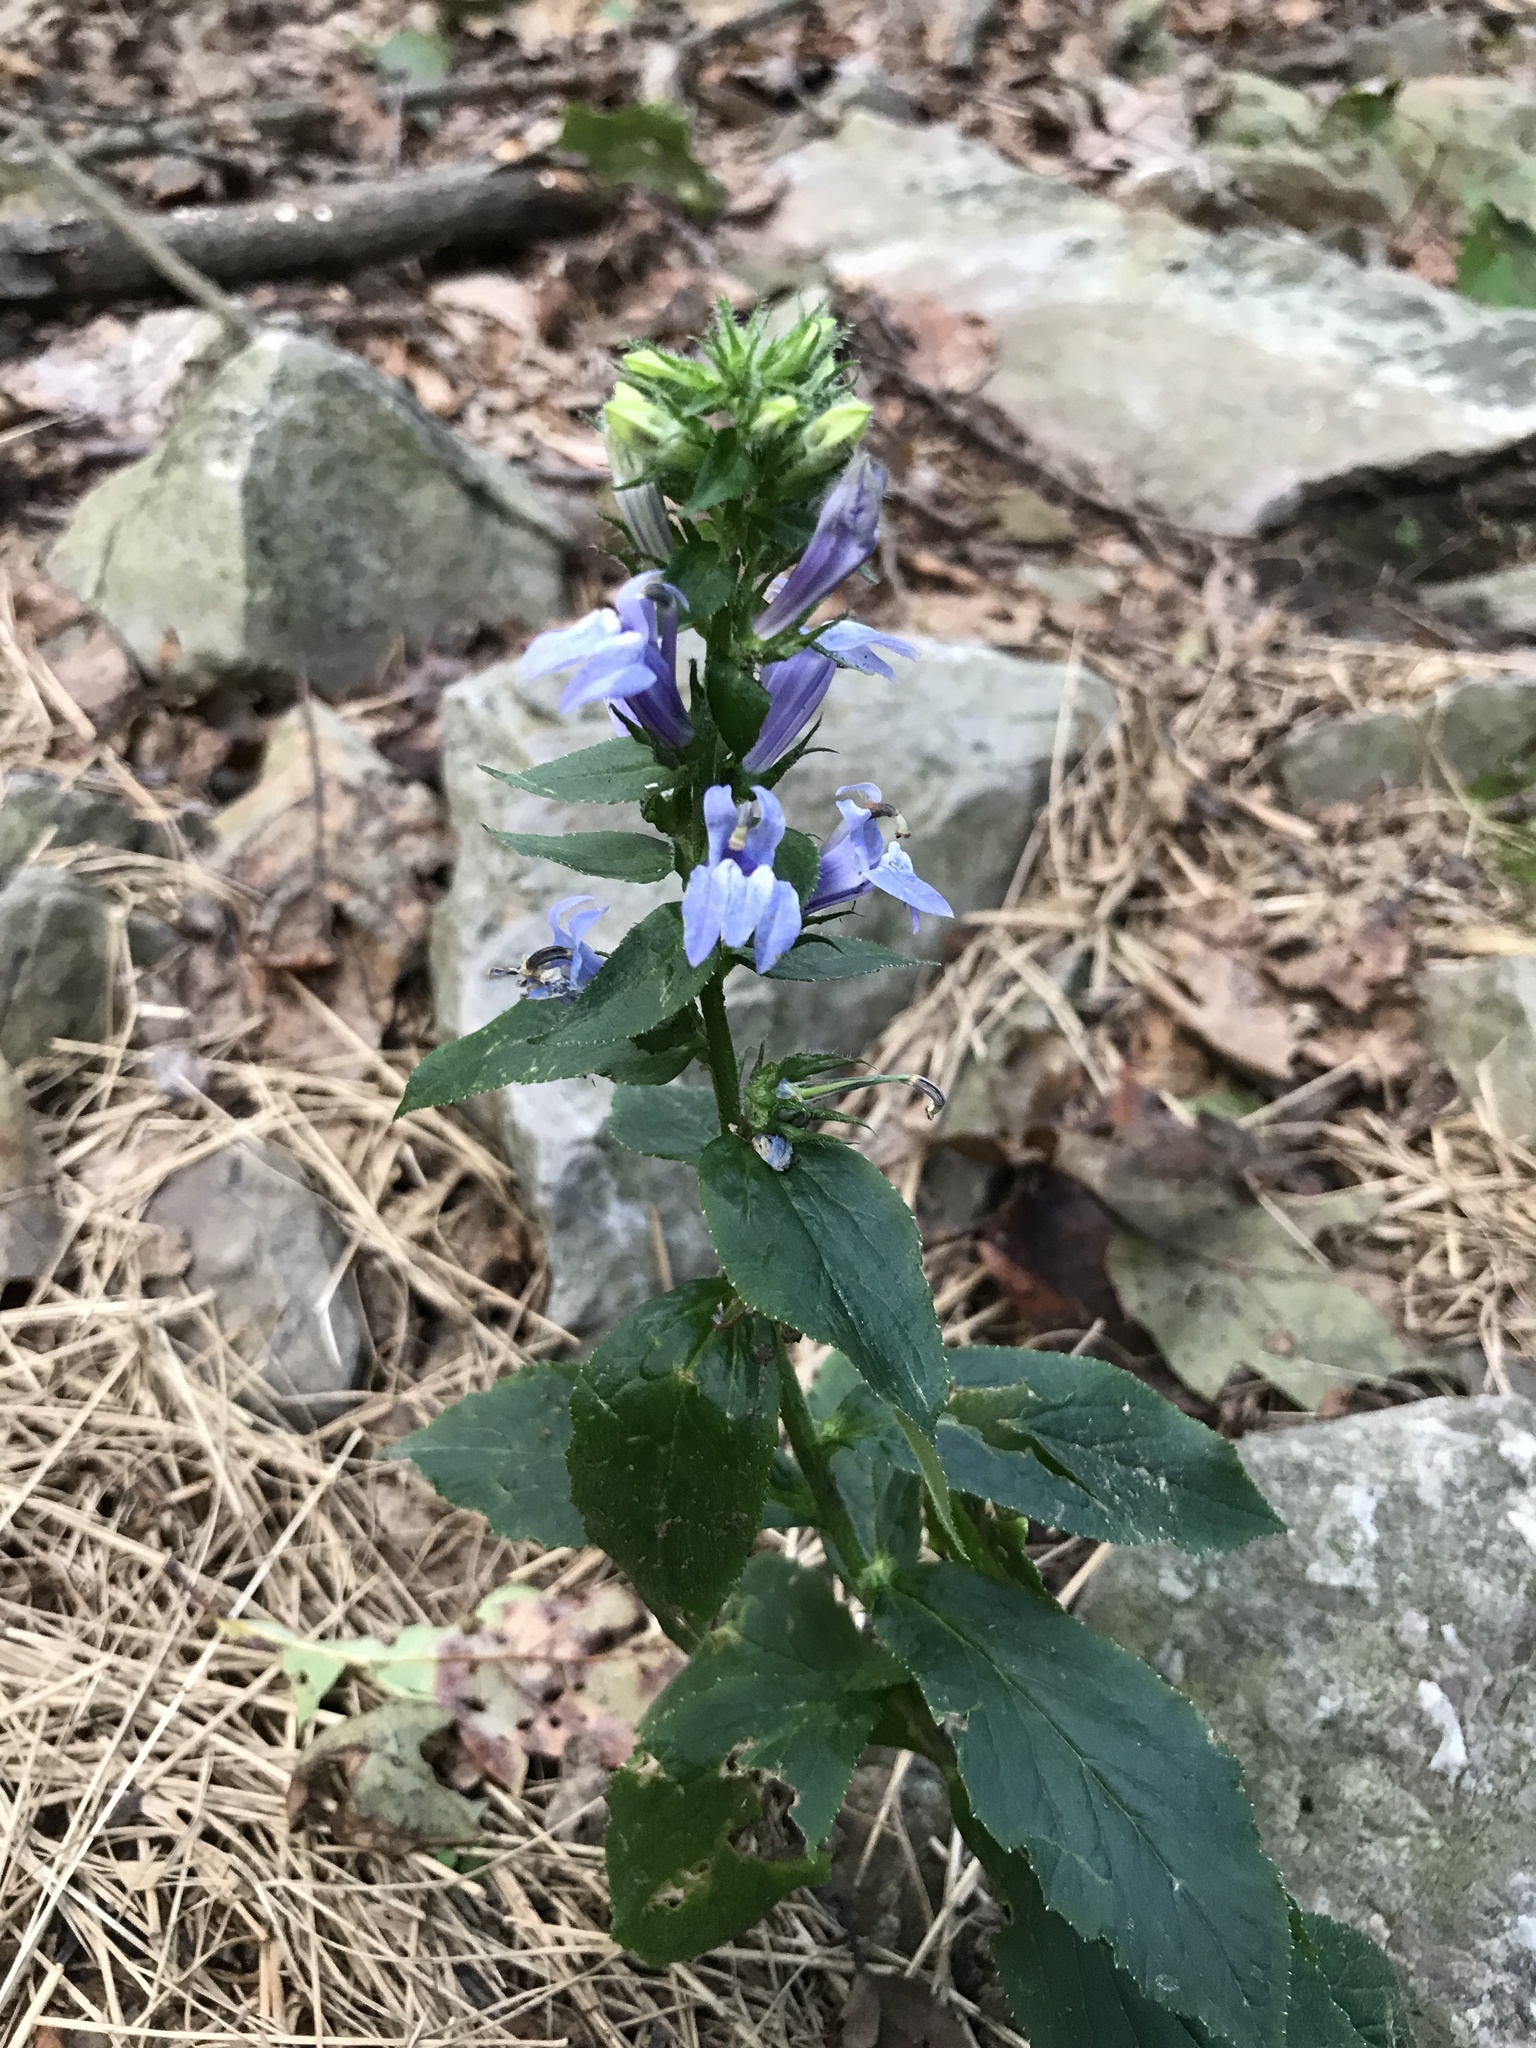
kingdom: Plantae
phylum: Tracheophyta
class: Magnoliopsida
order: Asterales
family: Campanulaceae
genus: Lobelia
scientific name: Lobelia siphilitica
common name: Great lobelia
